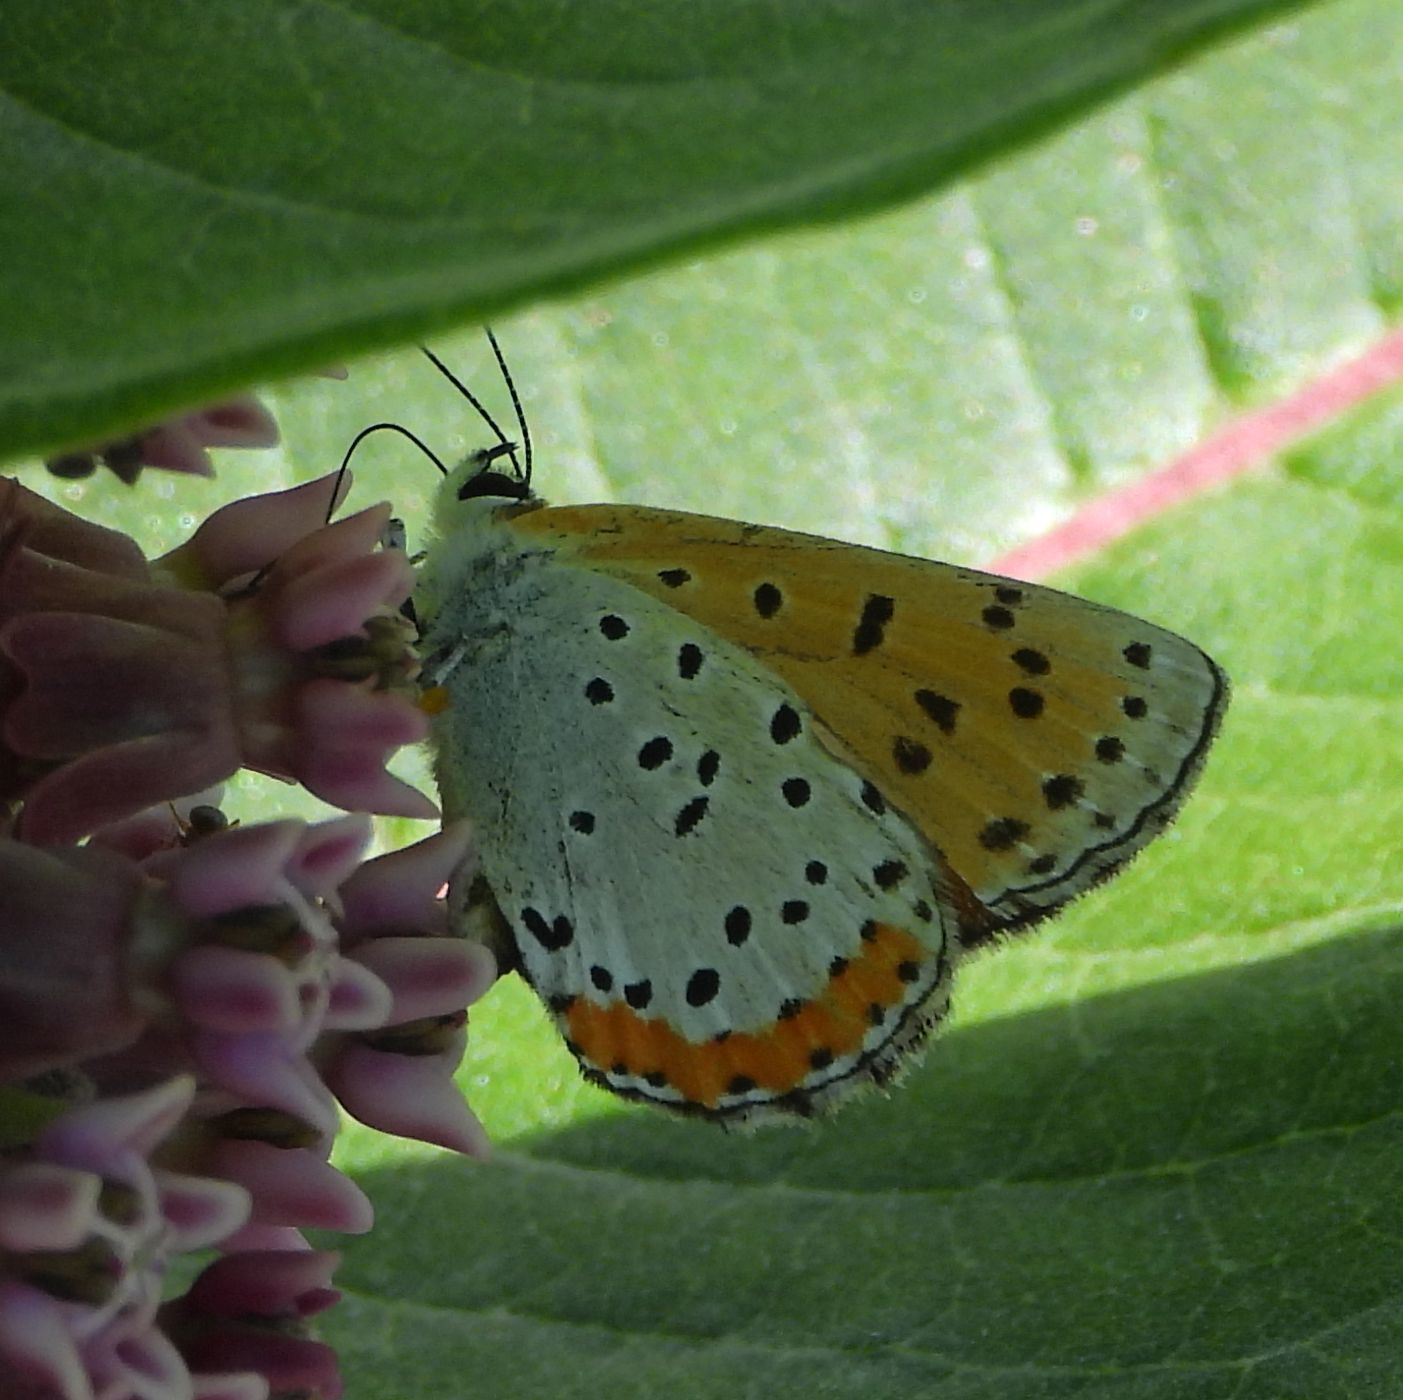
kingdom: Animalia
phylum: Arthropoda
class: Insecta
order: Lepidoptera
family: Lycaenidae
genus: Tharsalea
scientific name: Tharsalea hyllus
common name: Bronze copper
